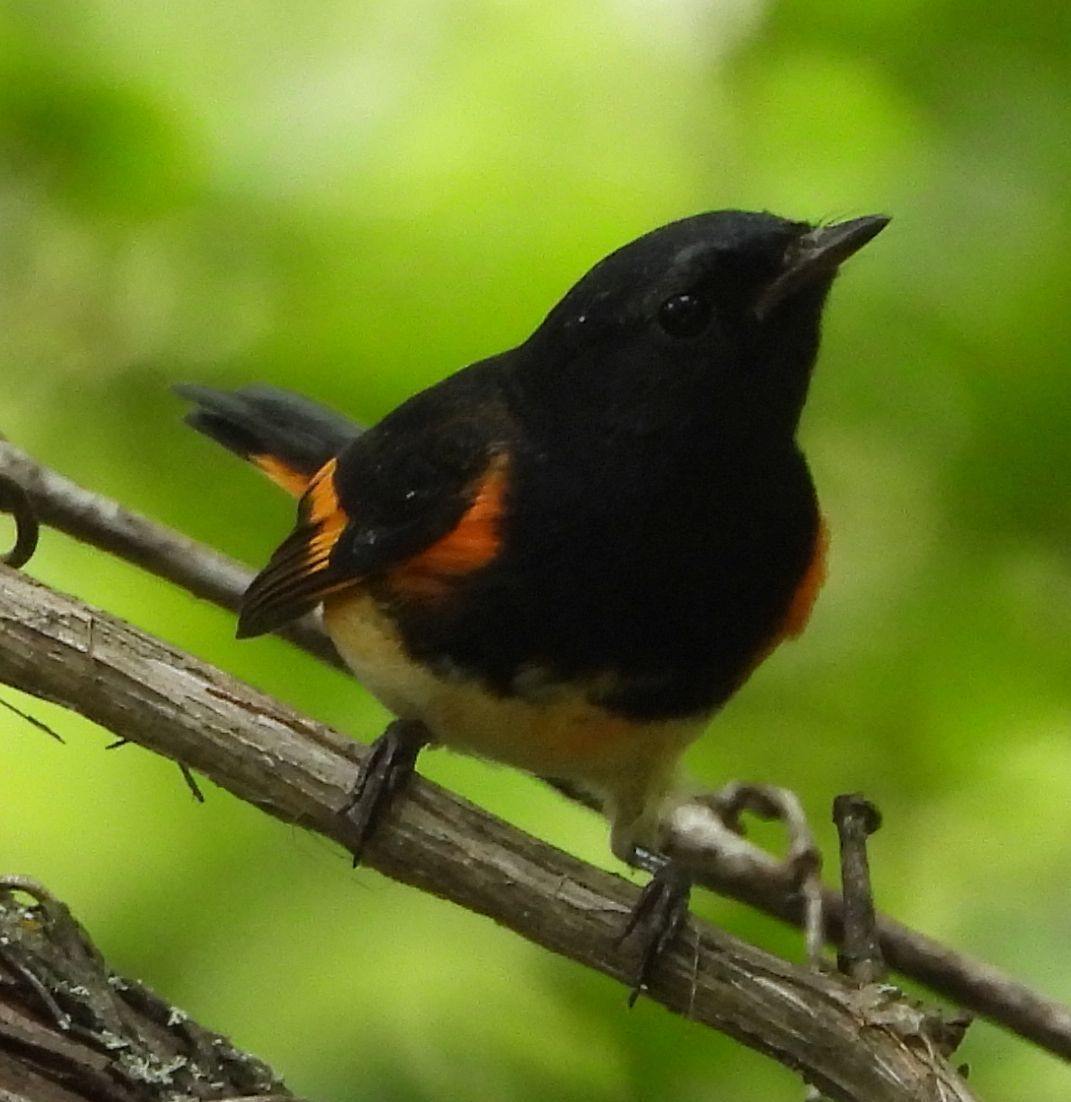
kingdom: Animalia
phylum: Chordata
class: Aves
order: Passeriformes
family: Parulidae
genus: Setophaga
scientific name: Setophaga ruticilla
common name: American redstart
